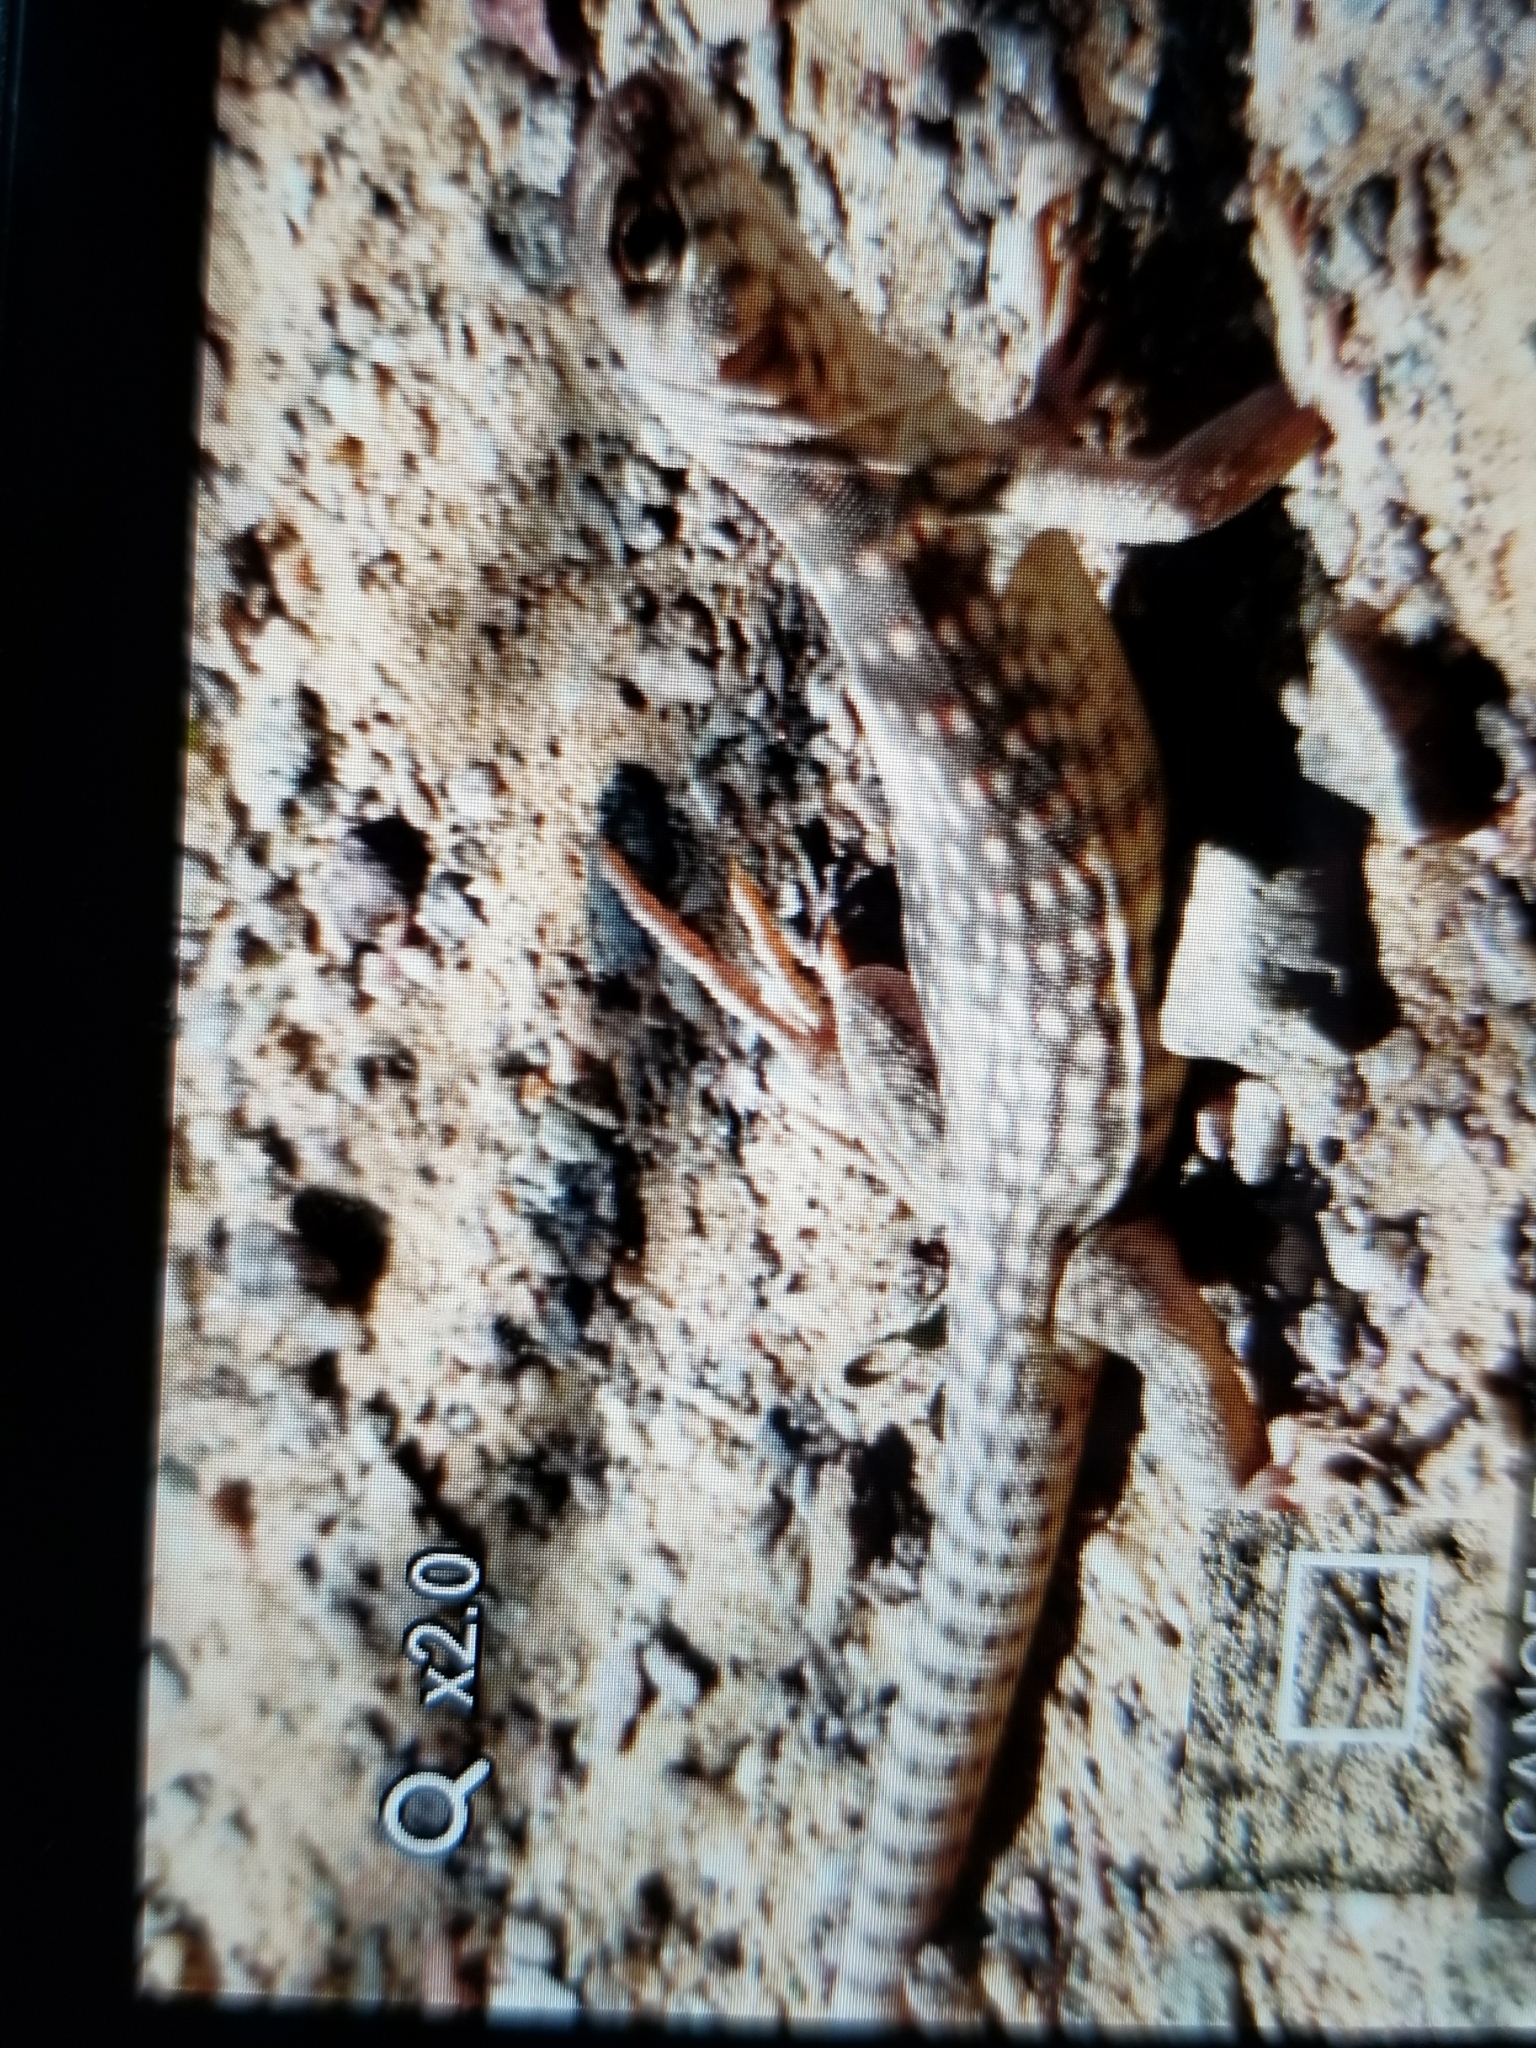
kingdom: Animalia
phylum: Chordata
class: Squamata
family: Iguanidae
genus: Dipsosaurus
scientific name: Dipsosaurus dorsalis
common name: Desert iguana
